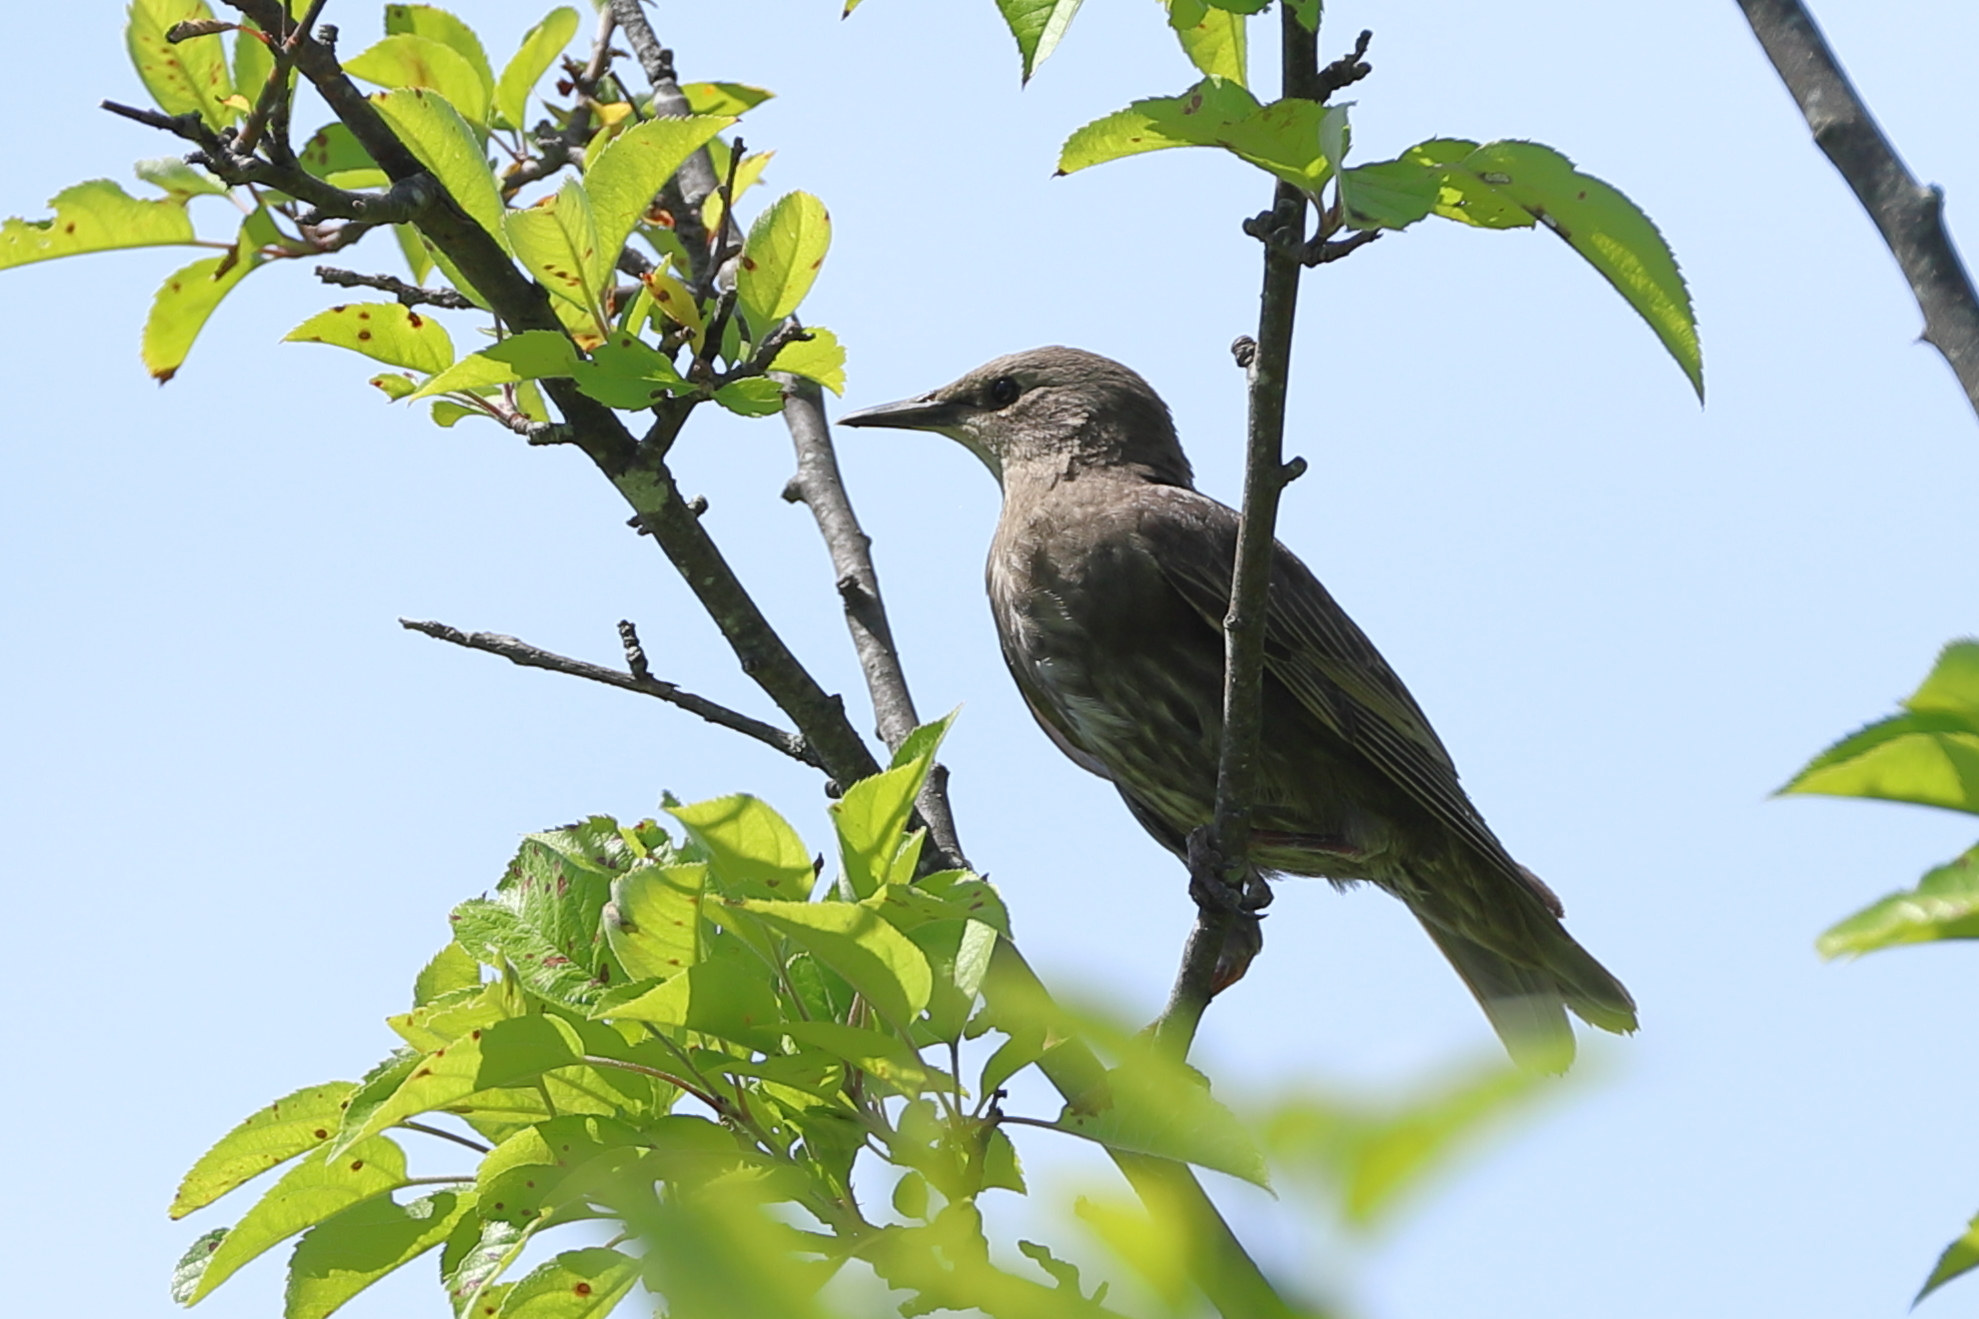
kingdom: Animalia
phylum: Chordata
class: Aves
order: Passeriformes
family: Sturnidae
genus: Sturnus
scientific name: Sturnus vulgaris
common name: Common starling
